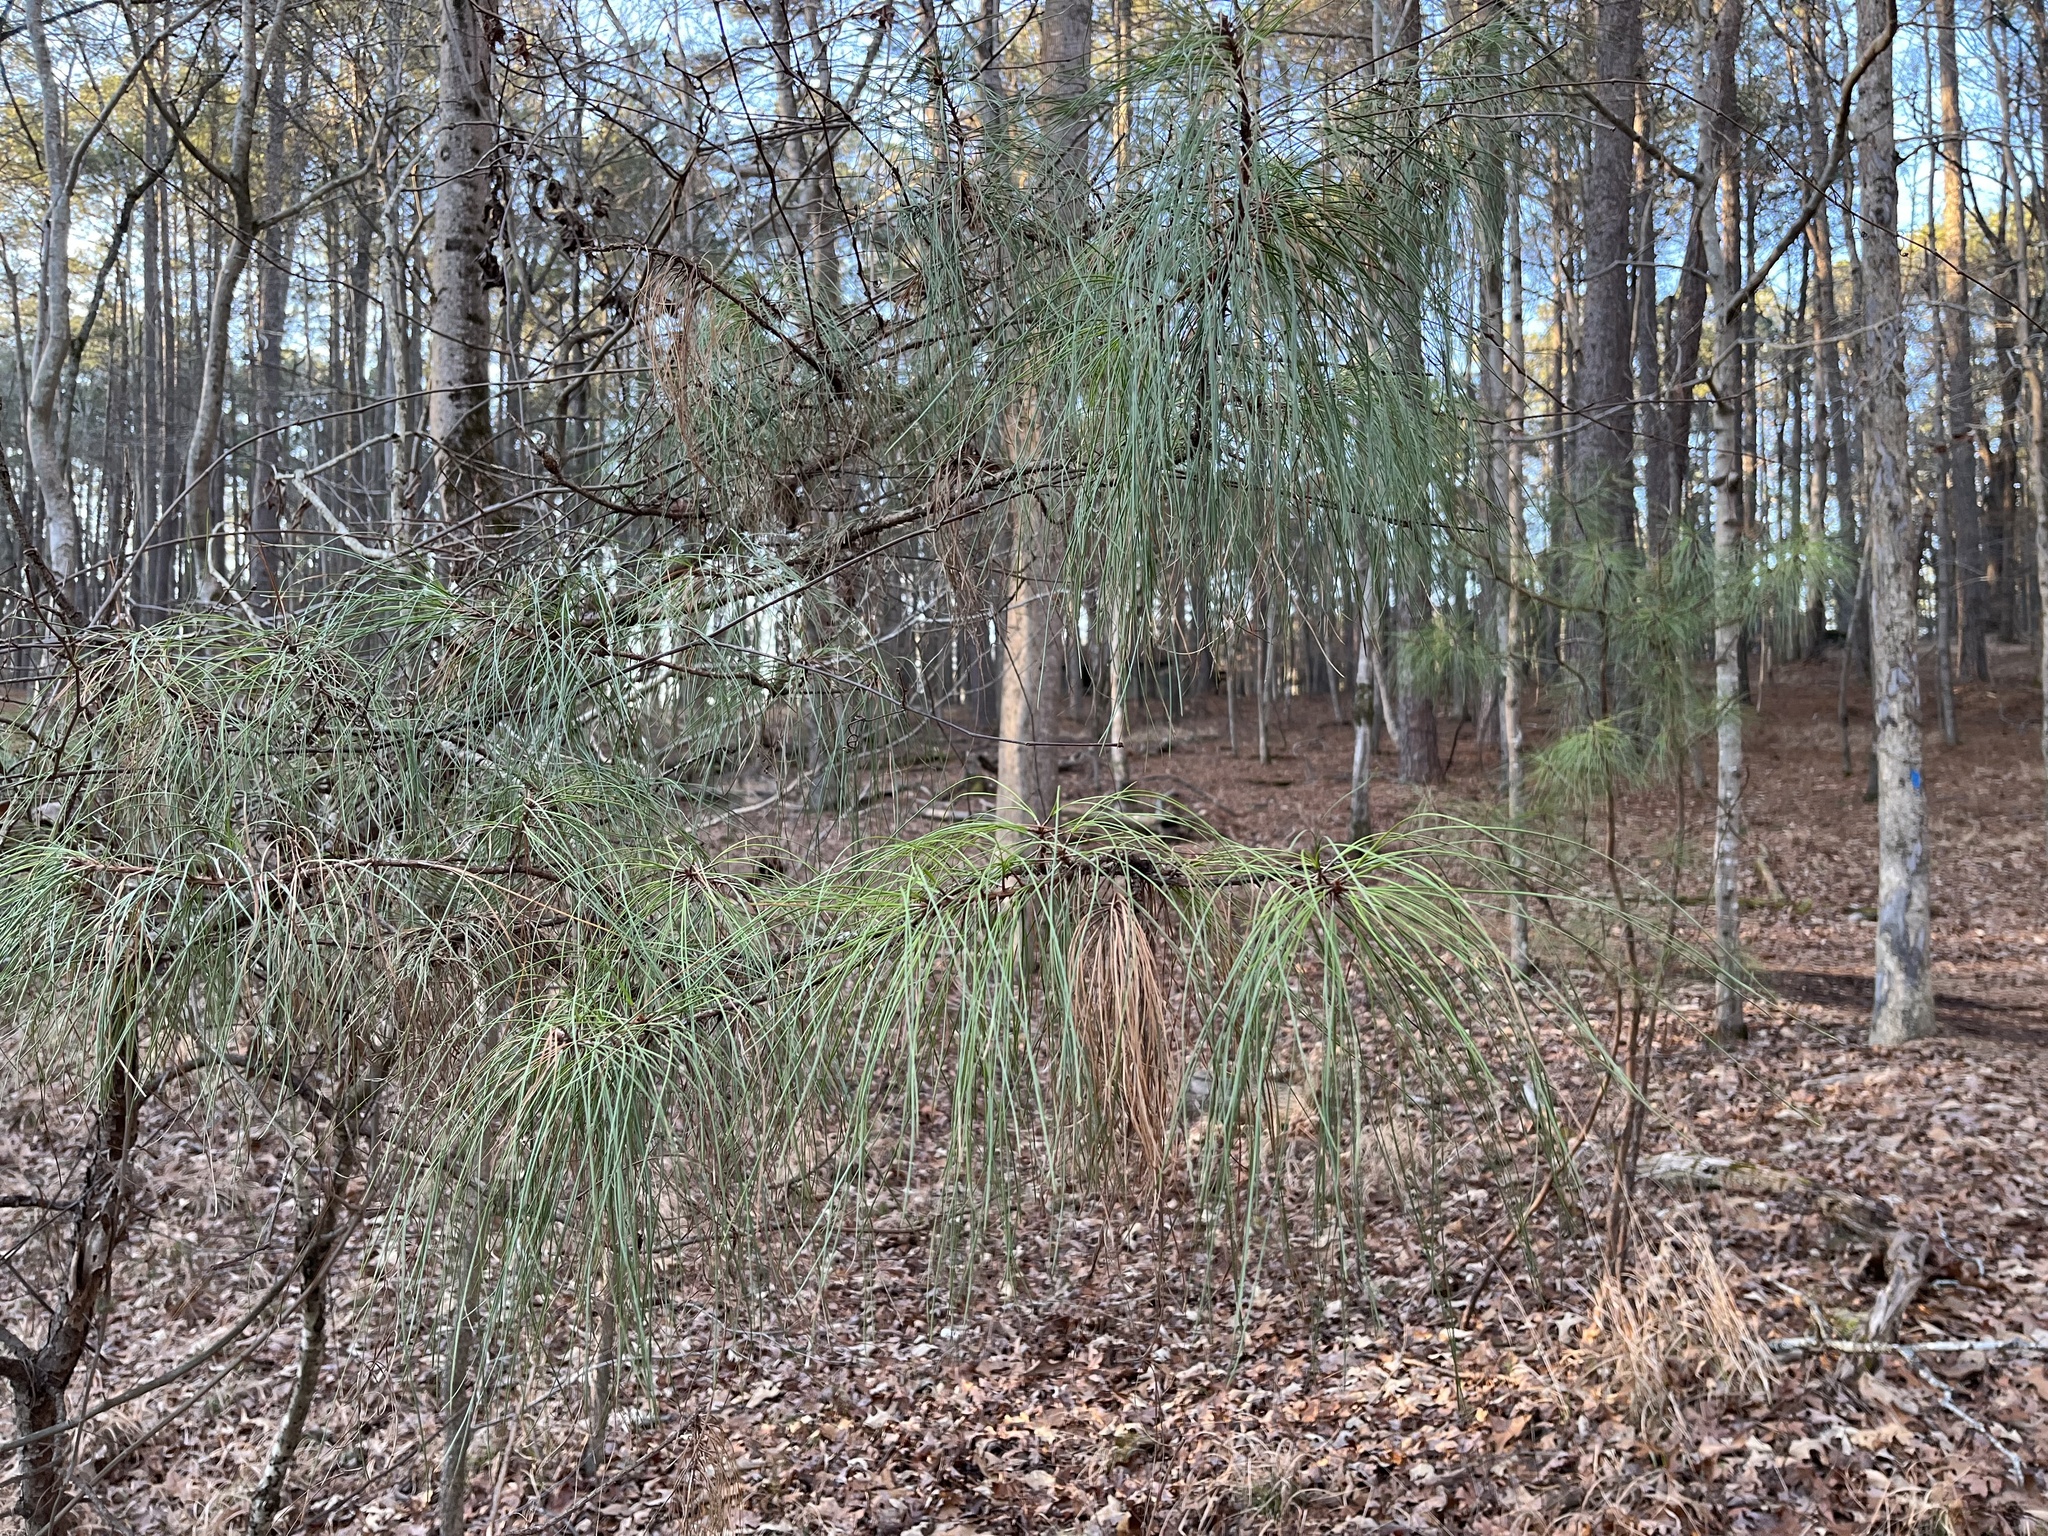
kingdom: Plantae
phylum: Tracheophyta
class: Pinopsida
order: Pinales
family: Pinaceae
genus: Pinus
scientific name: Pinus taeda
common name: Loblolly pine
